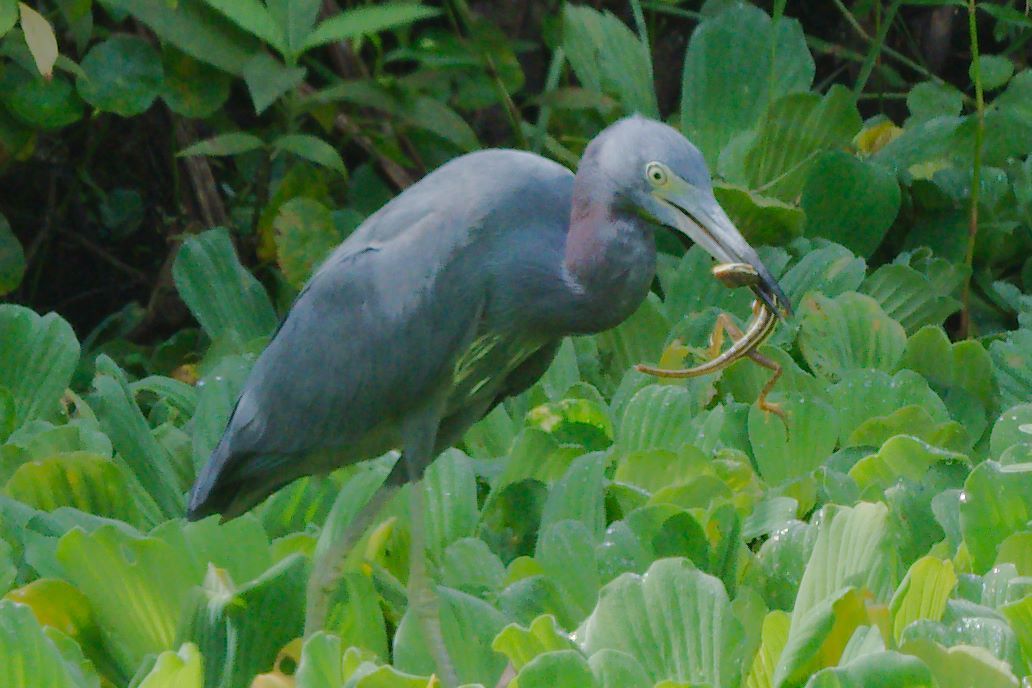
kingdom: Animalia
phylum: Chordata
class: Aves
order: Pelecaniformes
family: Ardeidae
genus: Egretta
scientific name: Egretta caerulea
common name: Little blue heron
